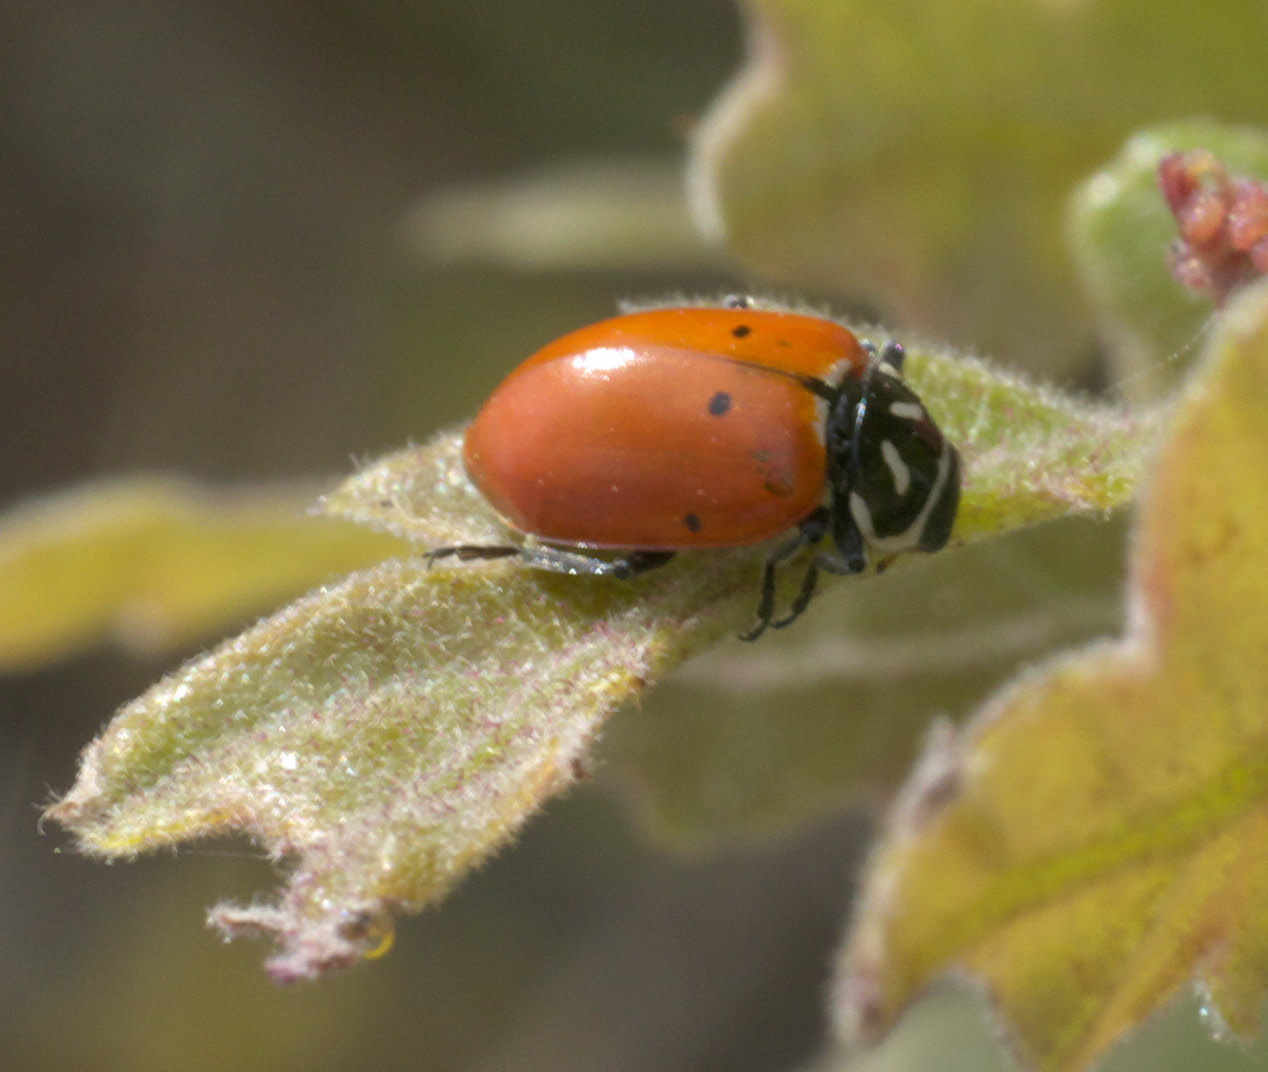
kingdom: Animalia
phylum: Arthropoda
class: Insecta
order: Coleoptera
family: Coccinellidae
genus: Hippodamia
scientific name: Hippodamia convergens
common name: Convergent lady beetle
